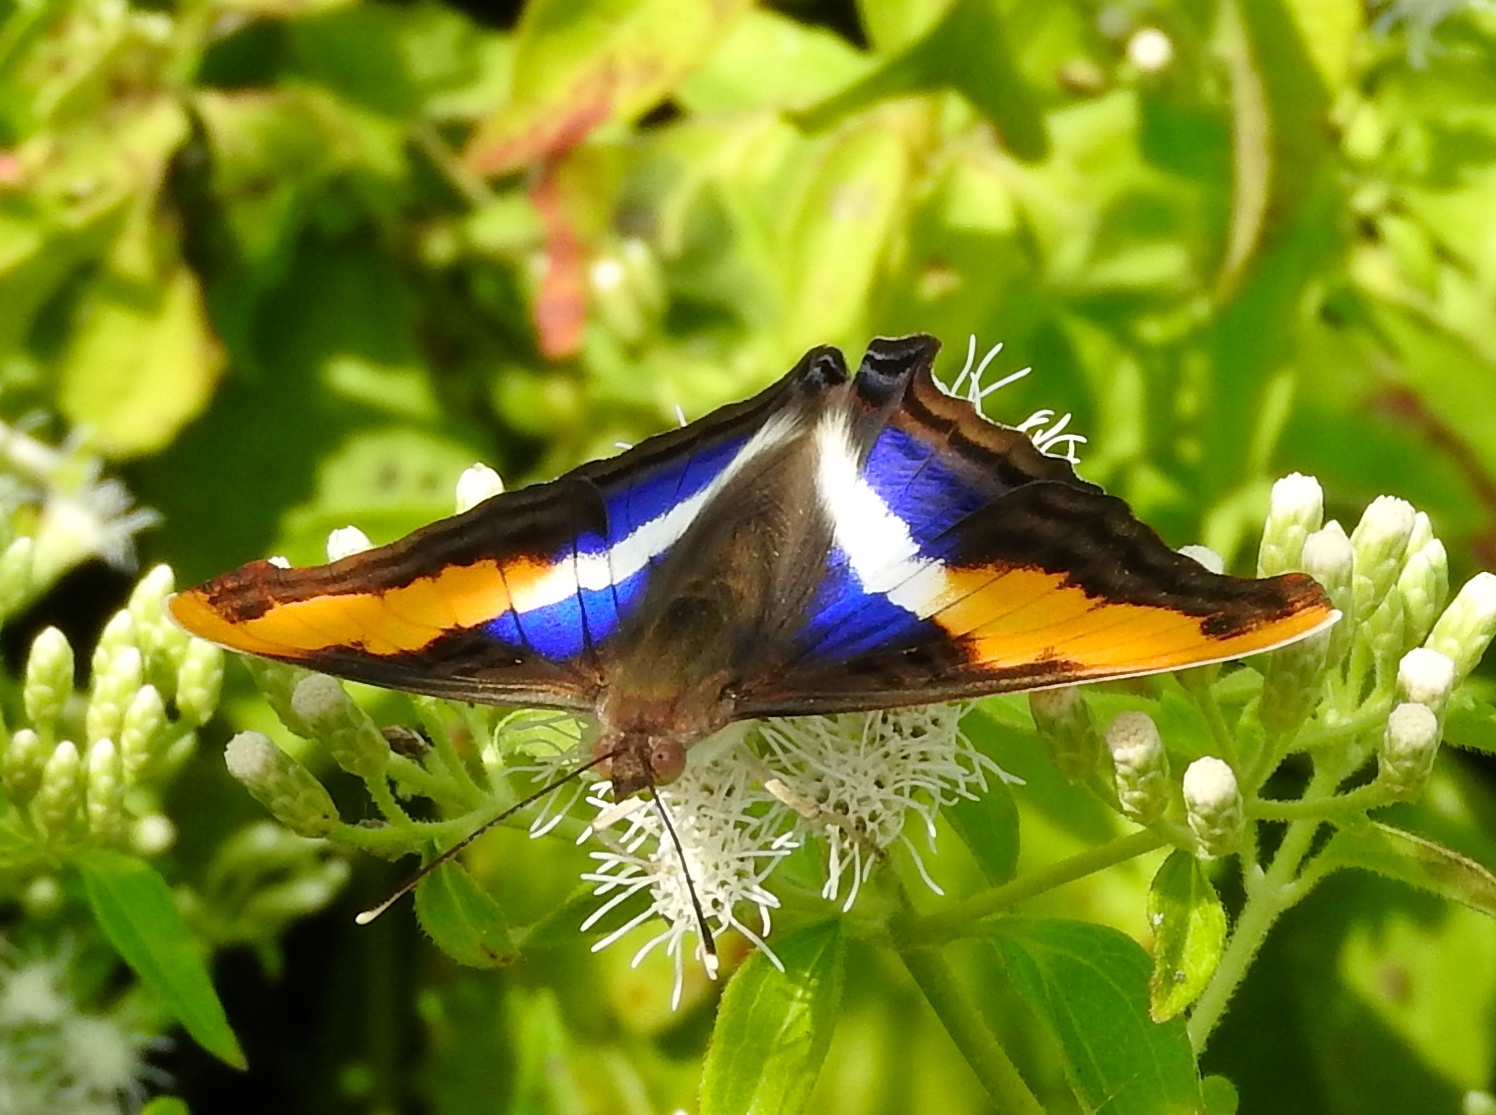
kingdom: Animalia
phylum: Arthropoda
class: Insecta
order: Lepidoptera
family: Nymphalidae
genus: Doxocopa
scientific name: Doxocopa laure
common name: Silver emperor
